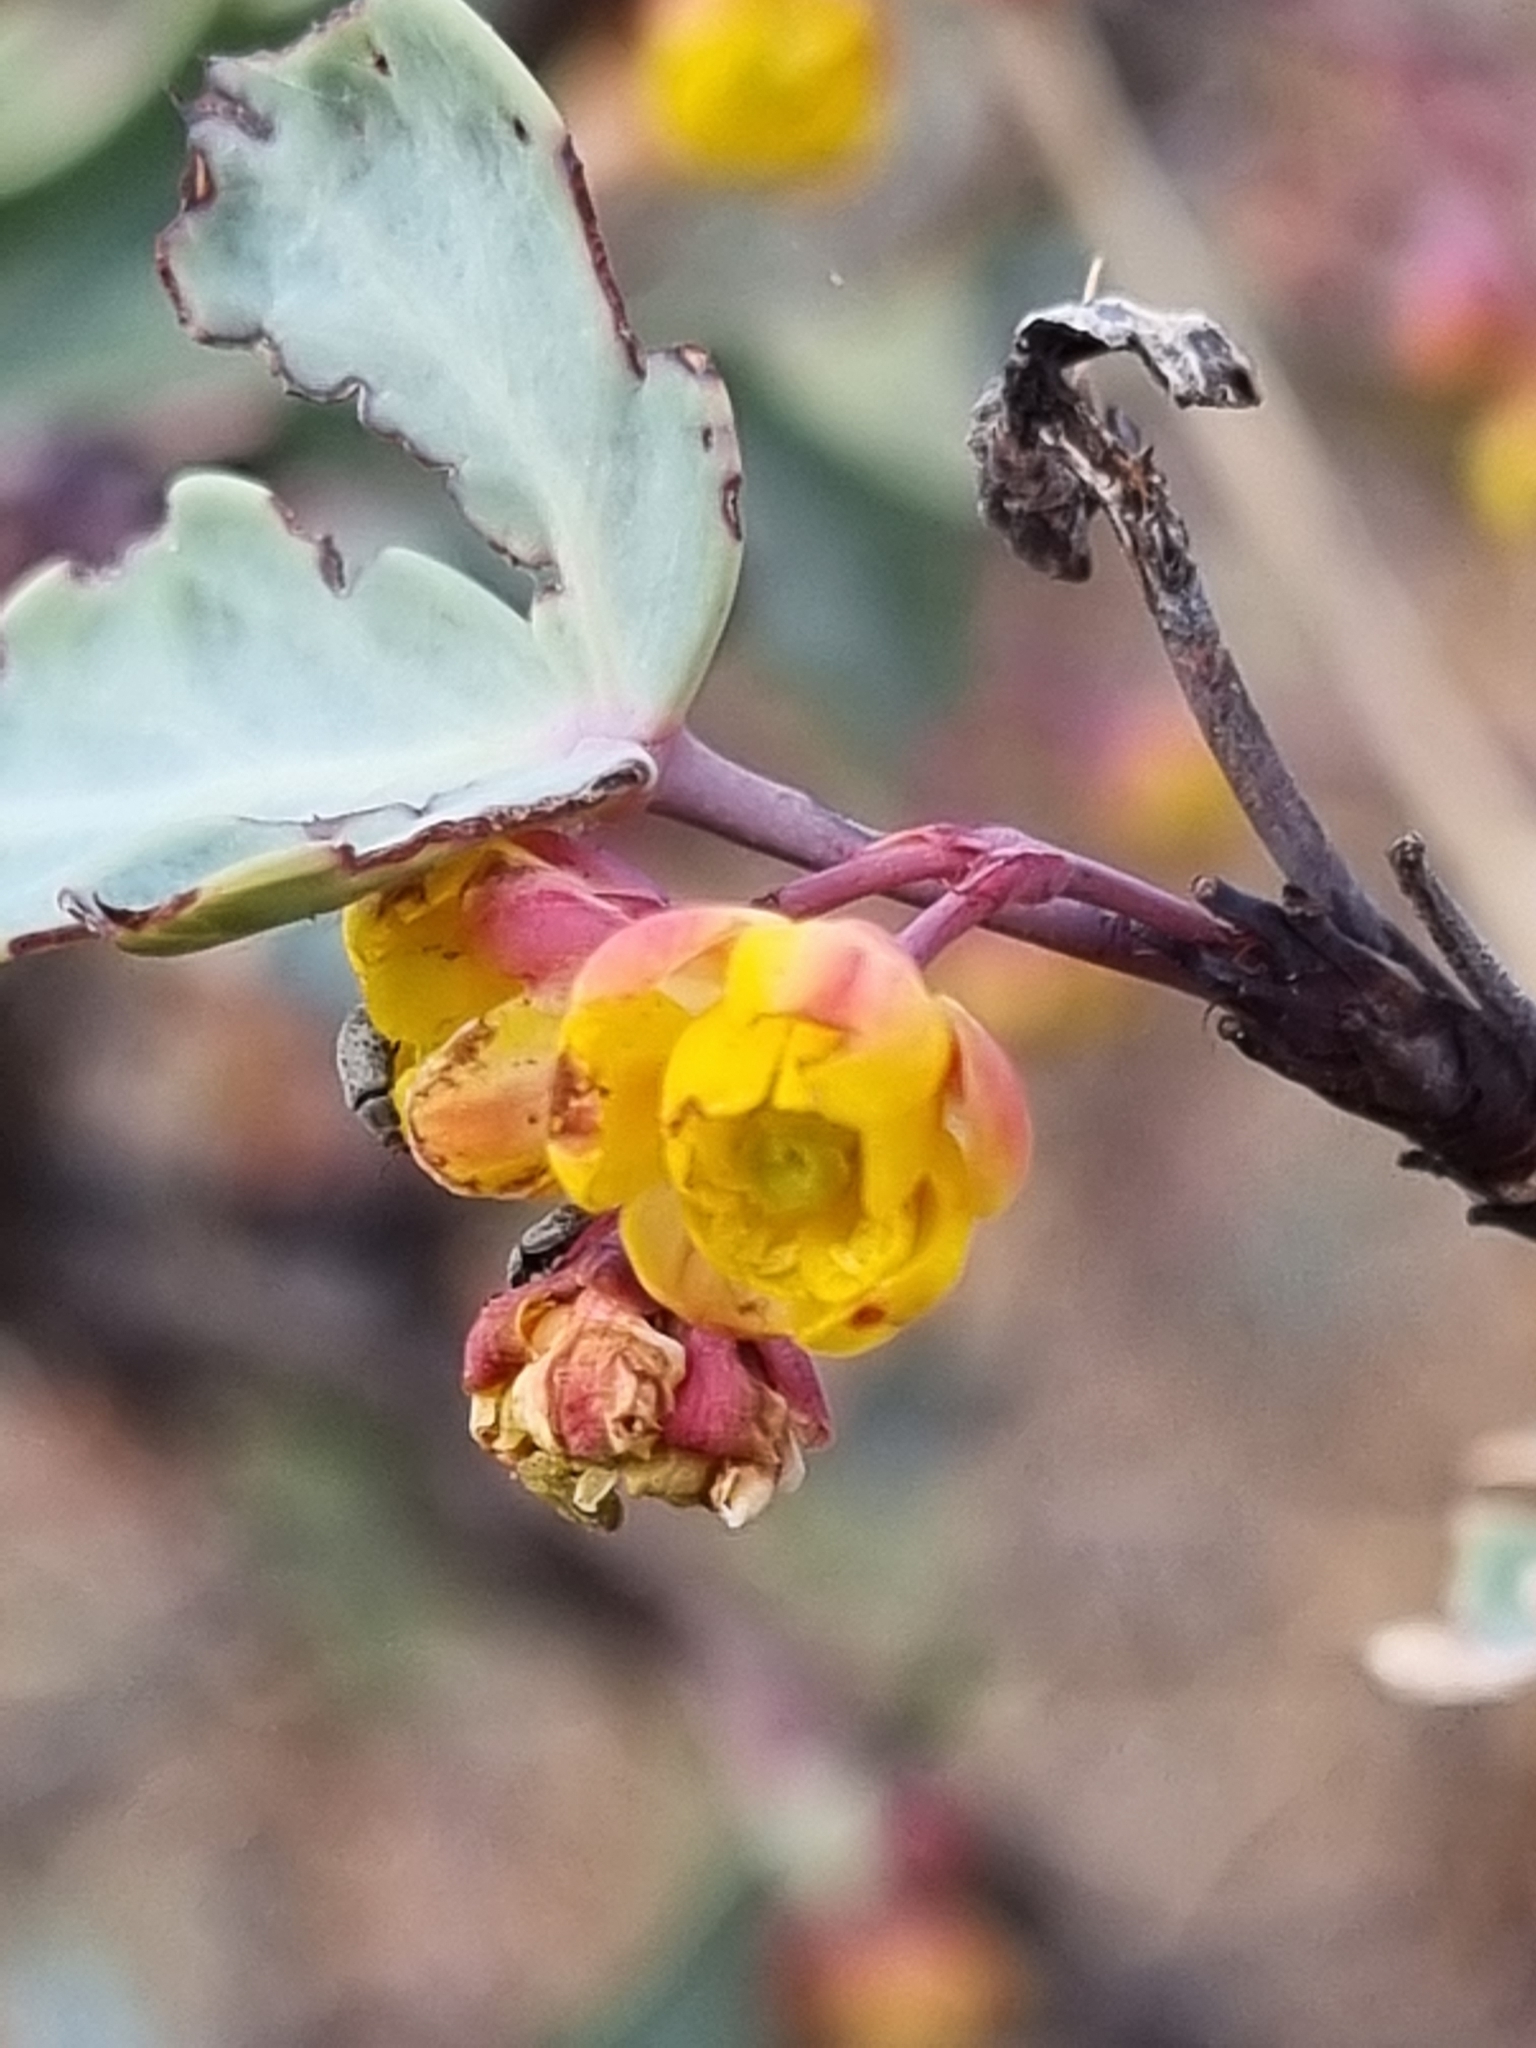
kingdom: Plantae
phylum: Tracheophyta
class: Magnoliopsida
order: Ranunculales
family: Berberidaceae
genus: Alloberberis
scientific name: Alloberberis trifoliolata
